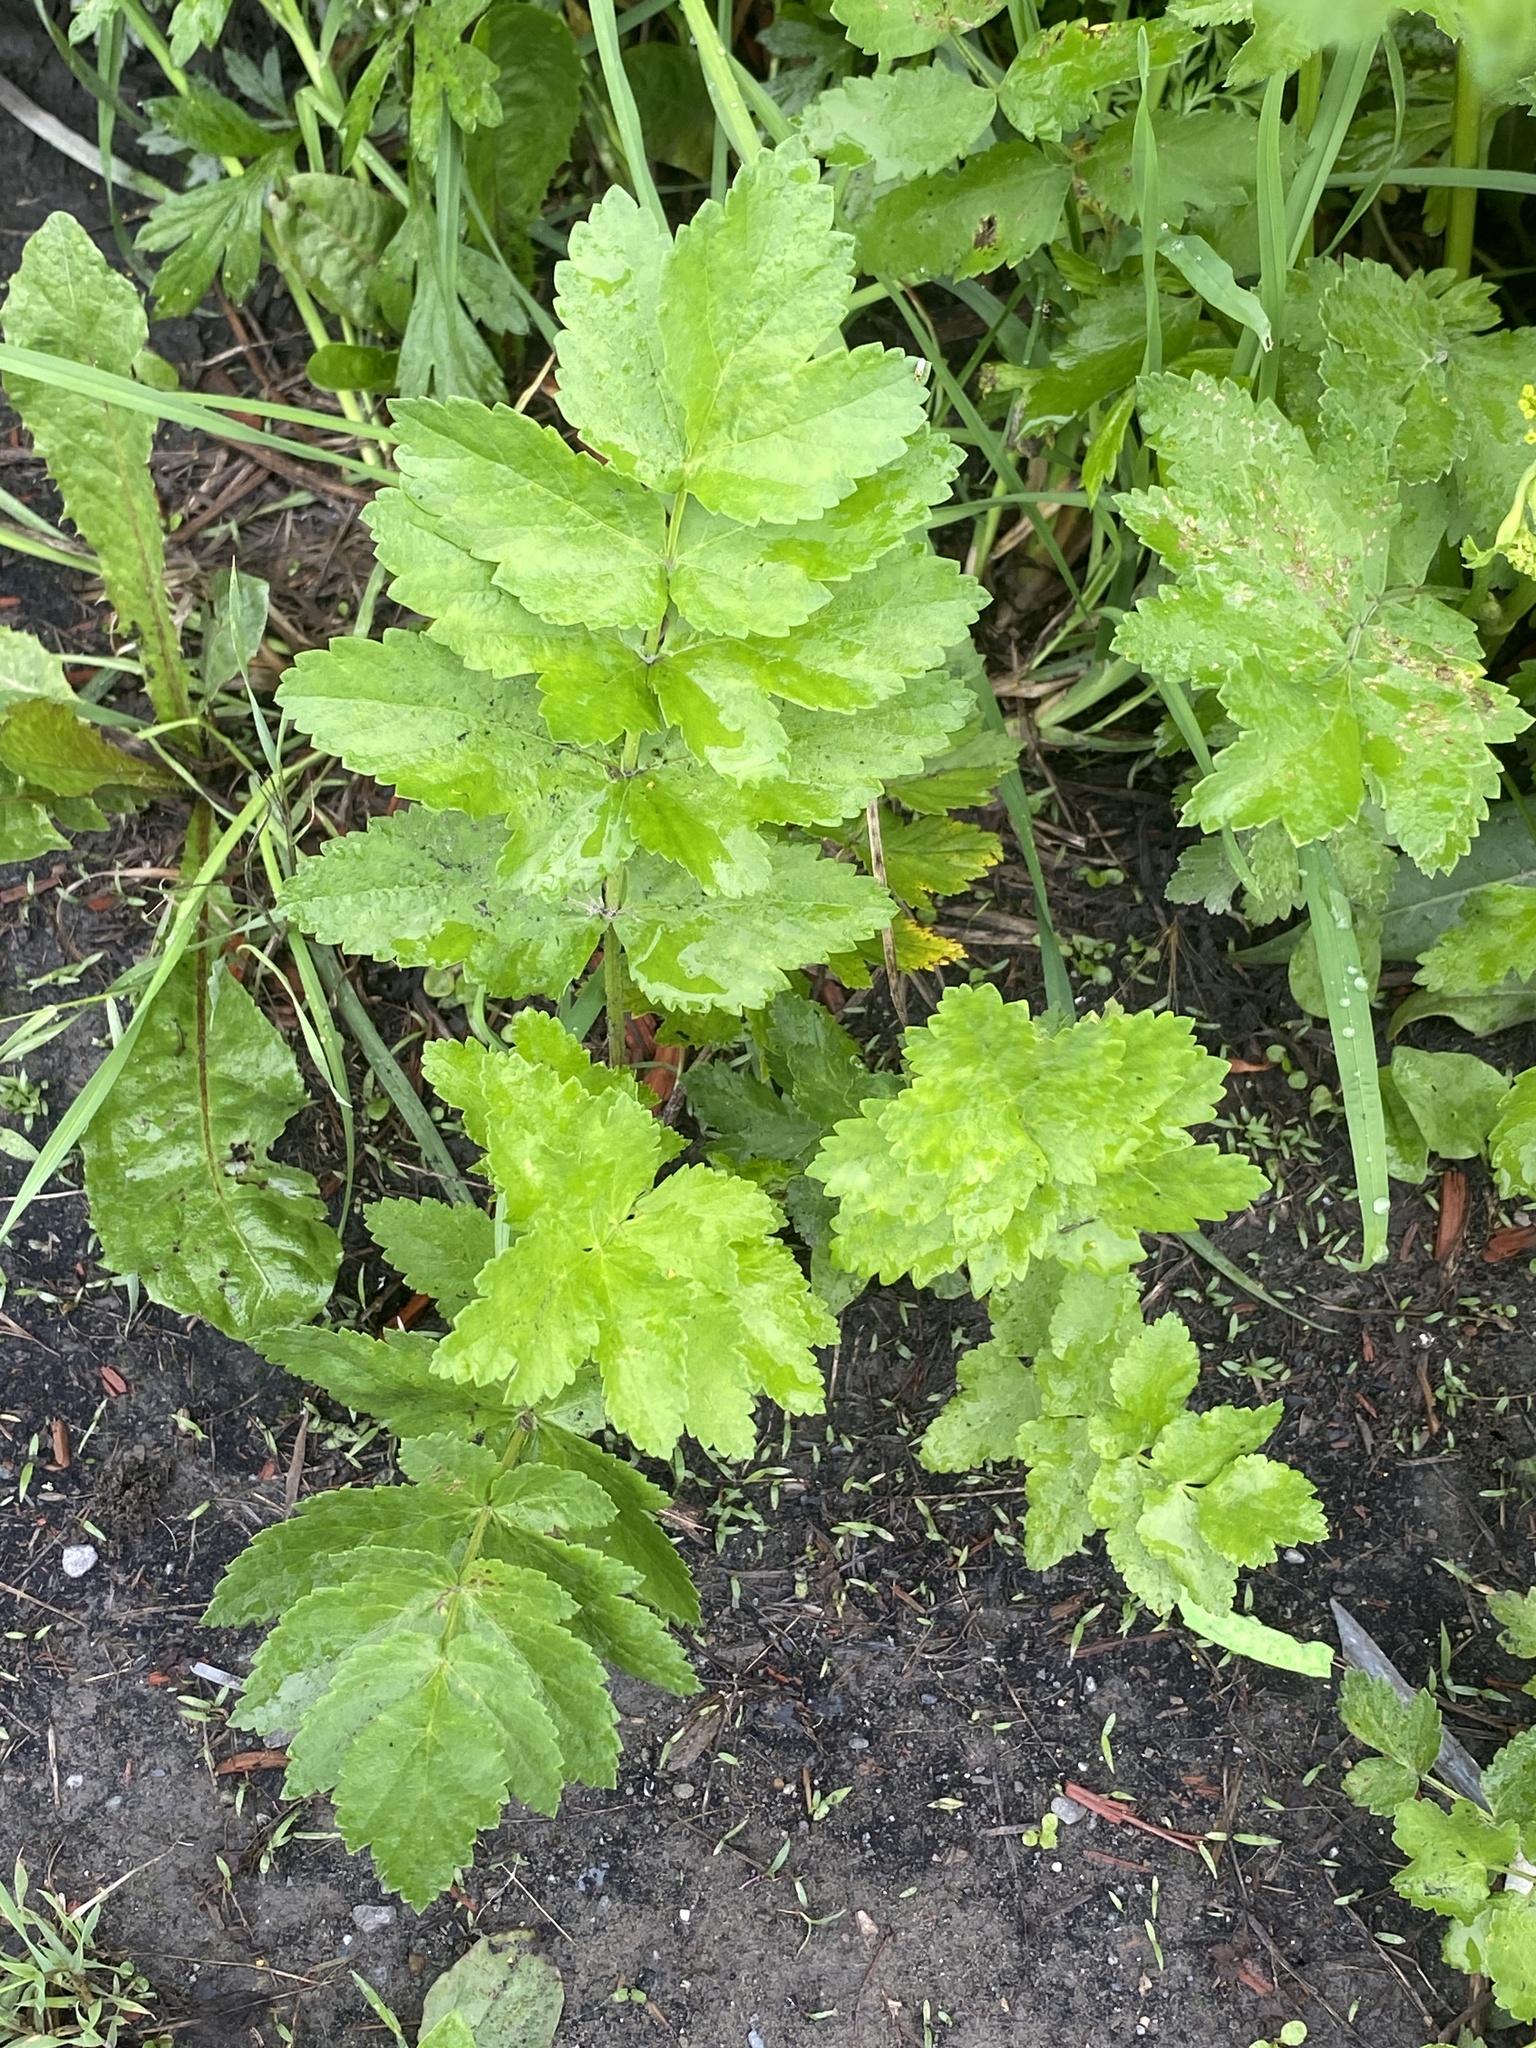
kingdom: Plantae
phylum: Tracheophyta
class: Magnoliopsida
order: Apiales
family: Apiaceae
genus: Pastinaca
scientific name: Pastinaca sativa
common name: Wild parsnip
